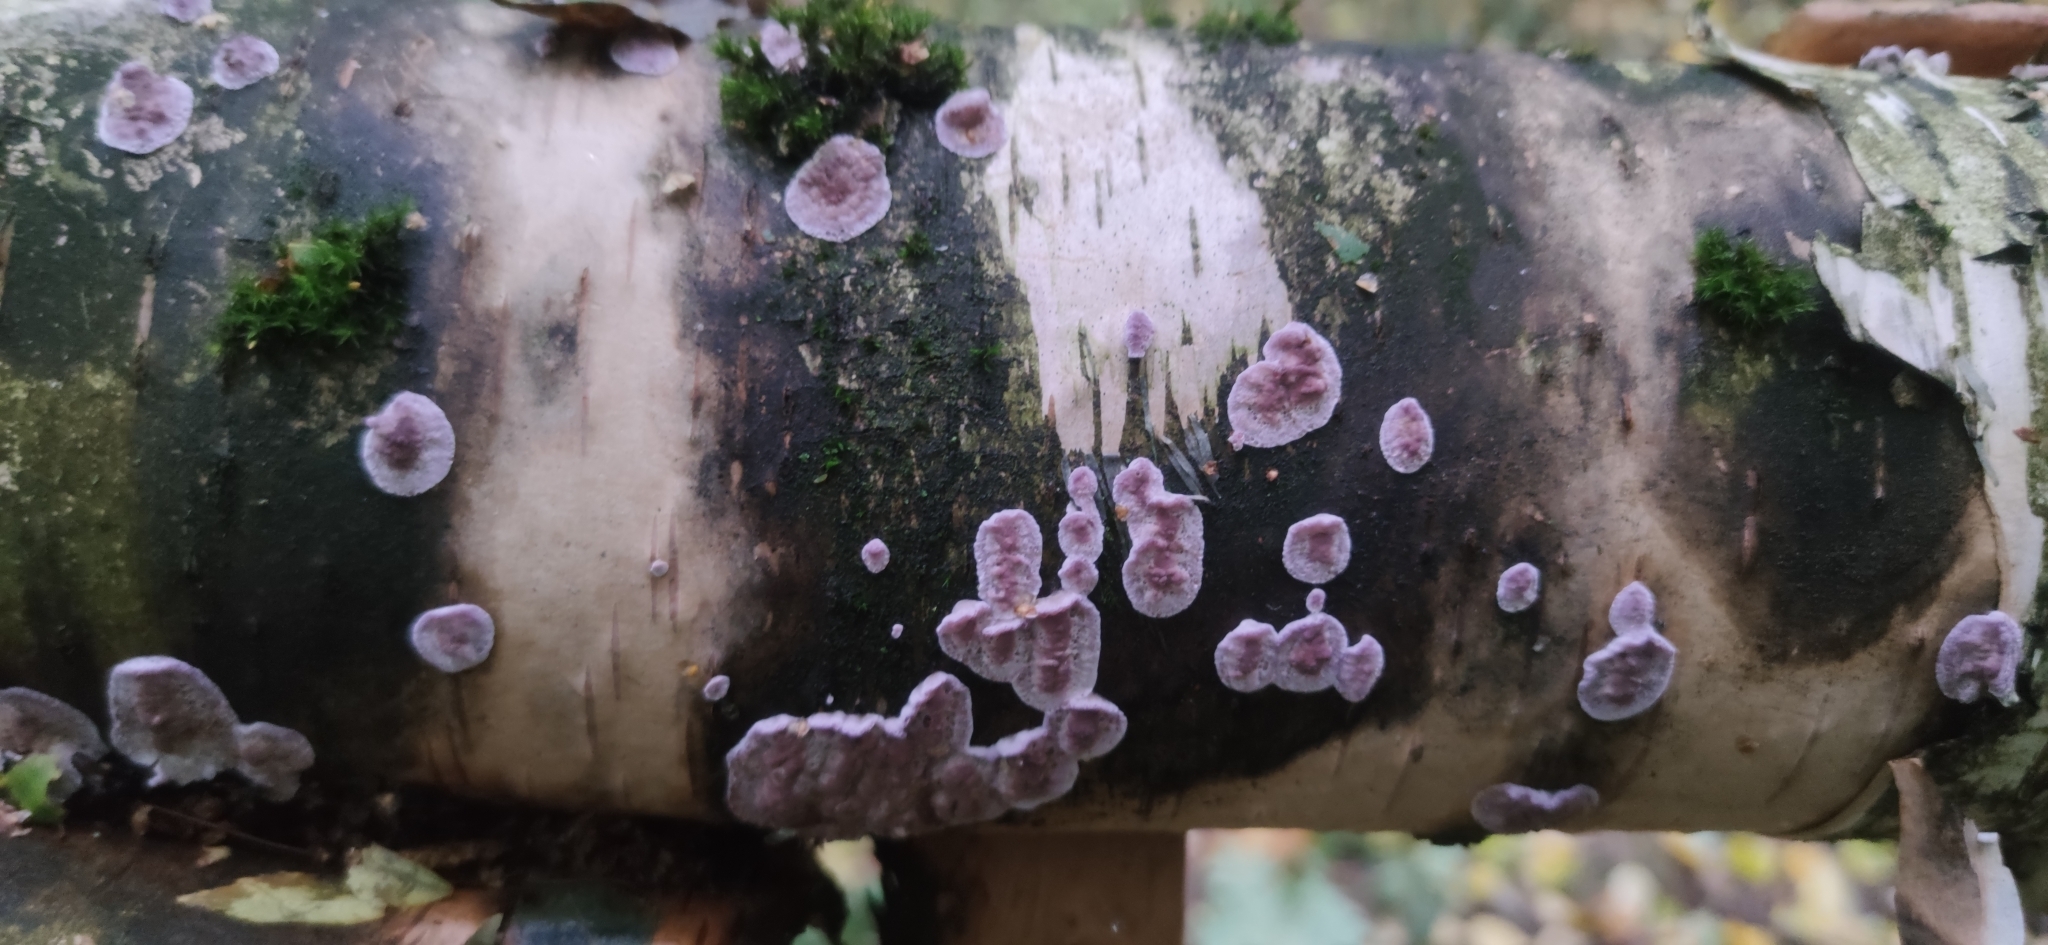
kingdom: Fungi
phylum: Basidiomycota
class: Agaricomycetes
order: Agaricales
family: Cyphellaceae
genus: Chondrostereum
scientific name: Chondrostereum purpureum
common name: Silver leaf disease
